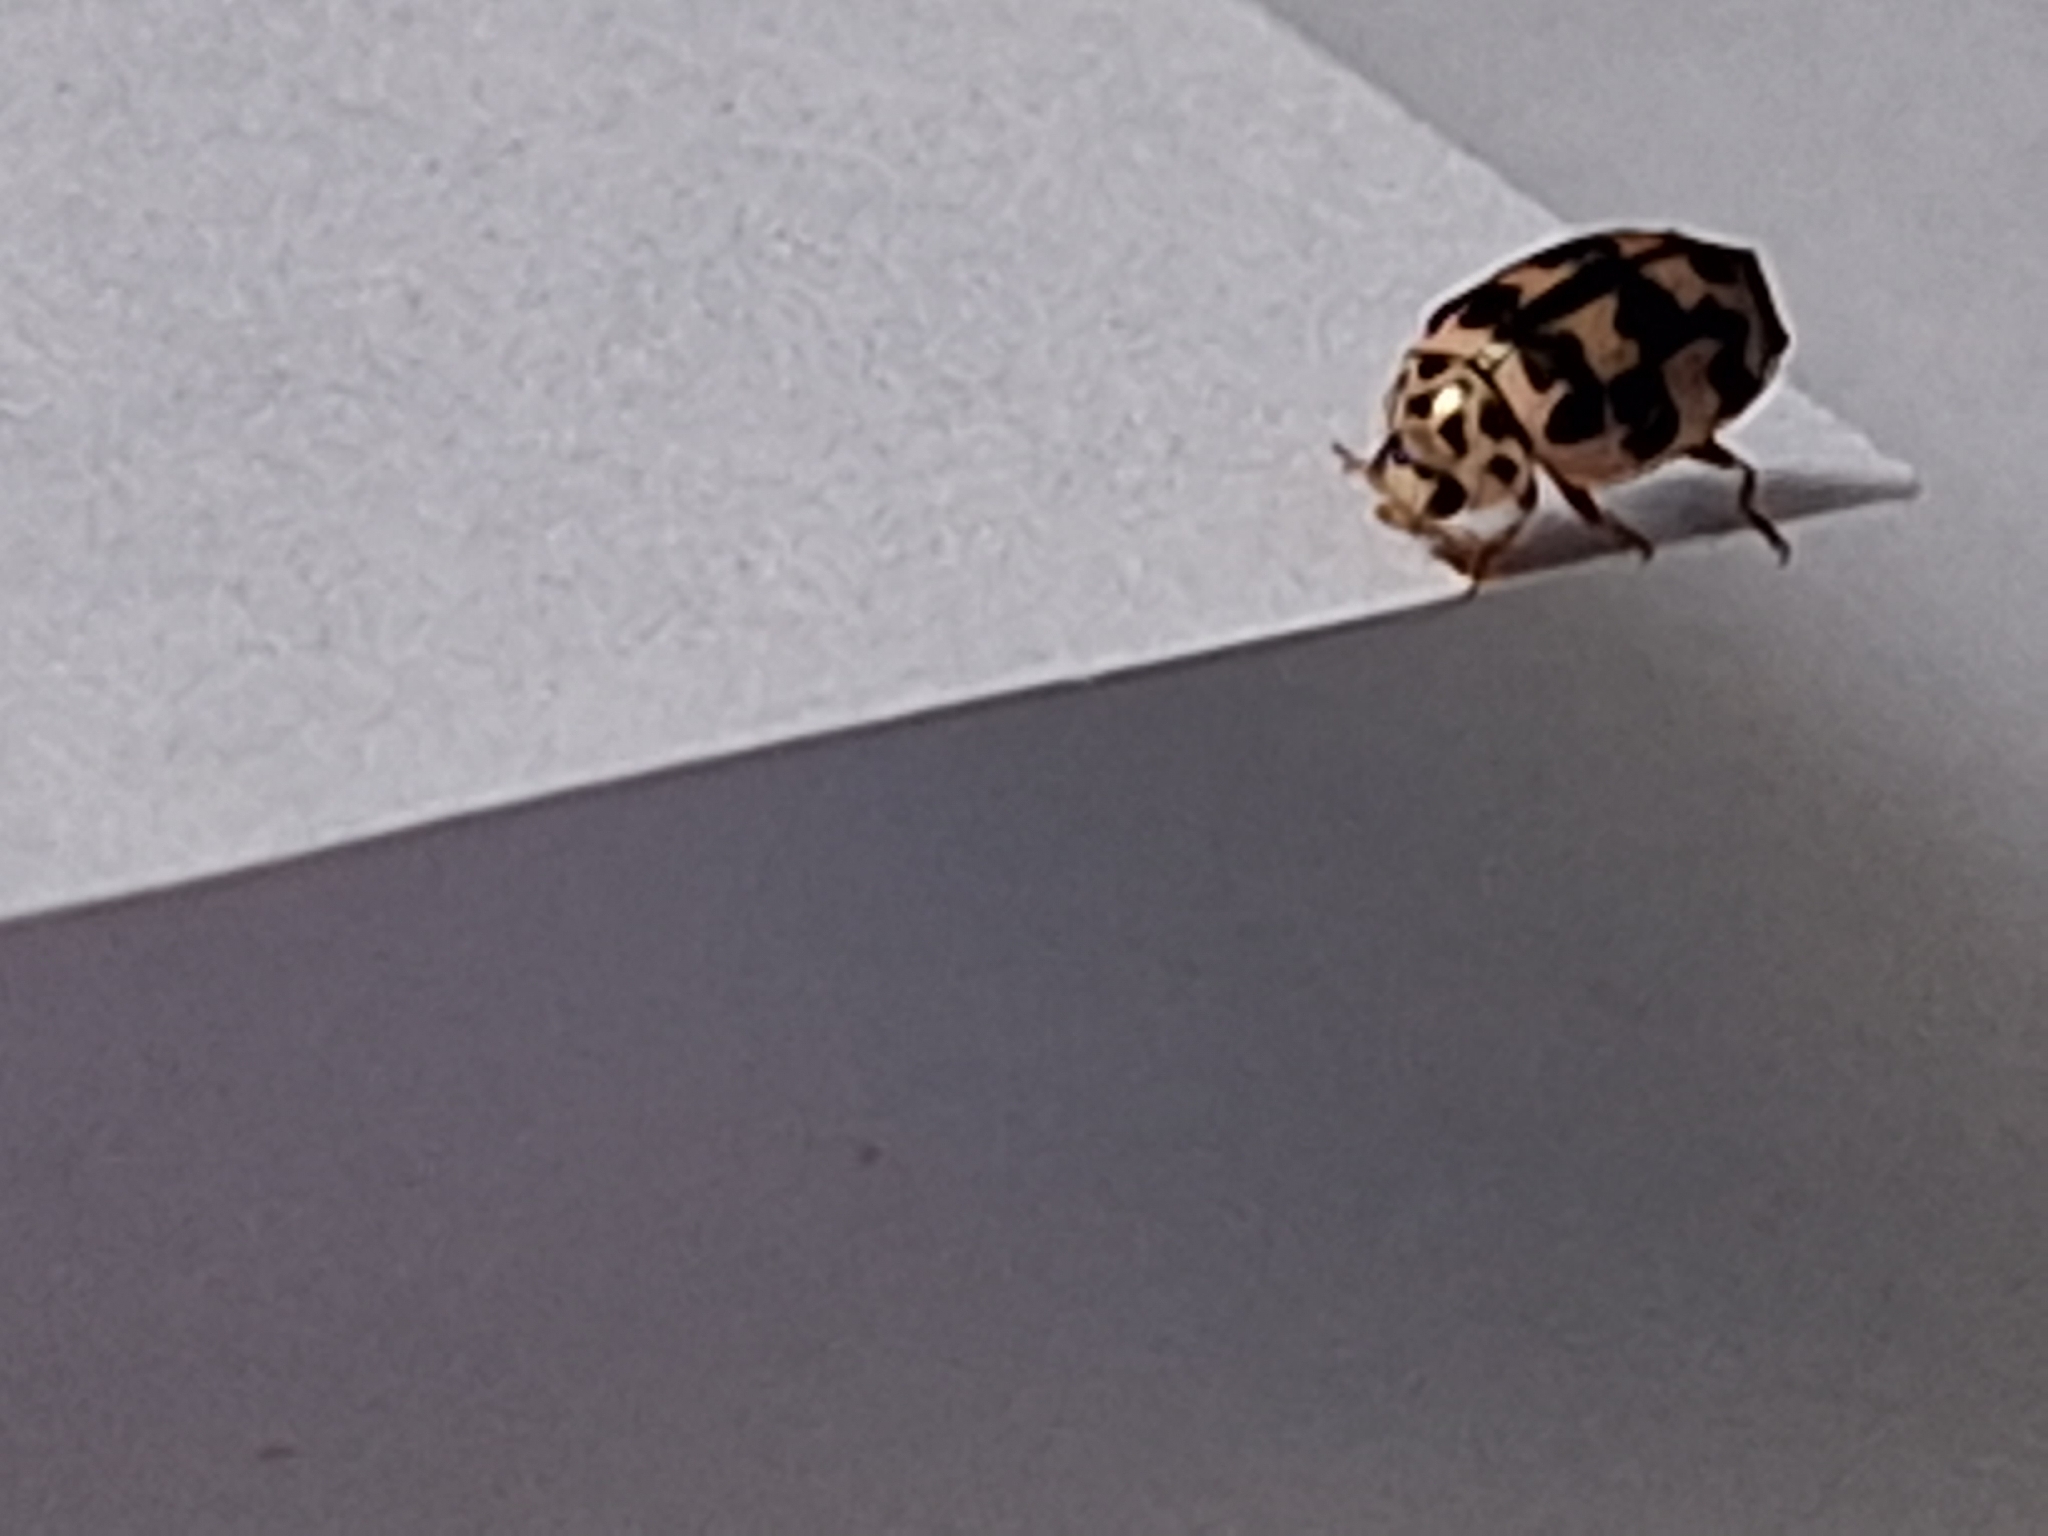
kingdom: Animalia
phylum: Arthropoda
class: Insecta
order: Coleoptera
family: Coccinellidae
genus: Oenopia
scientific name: Oenopia conglobata
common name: Ladybird beetle
